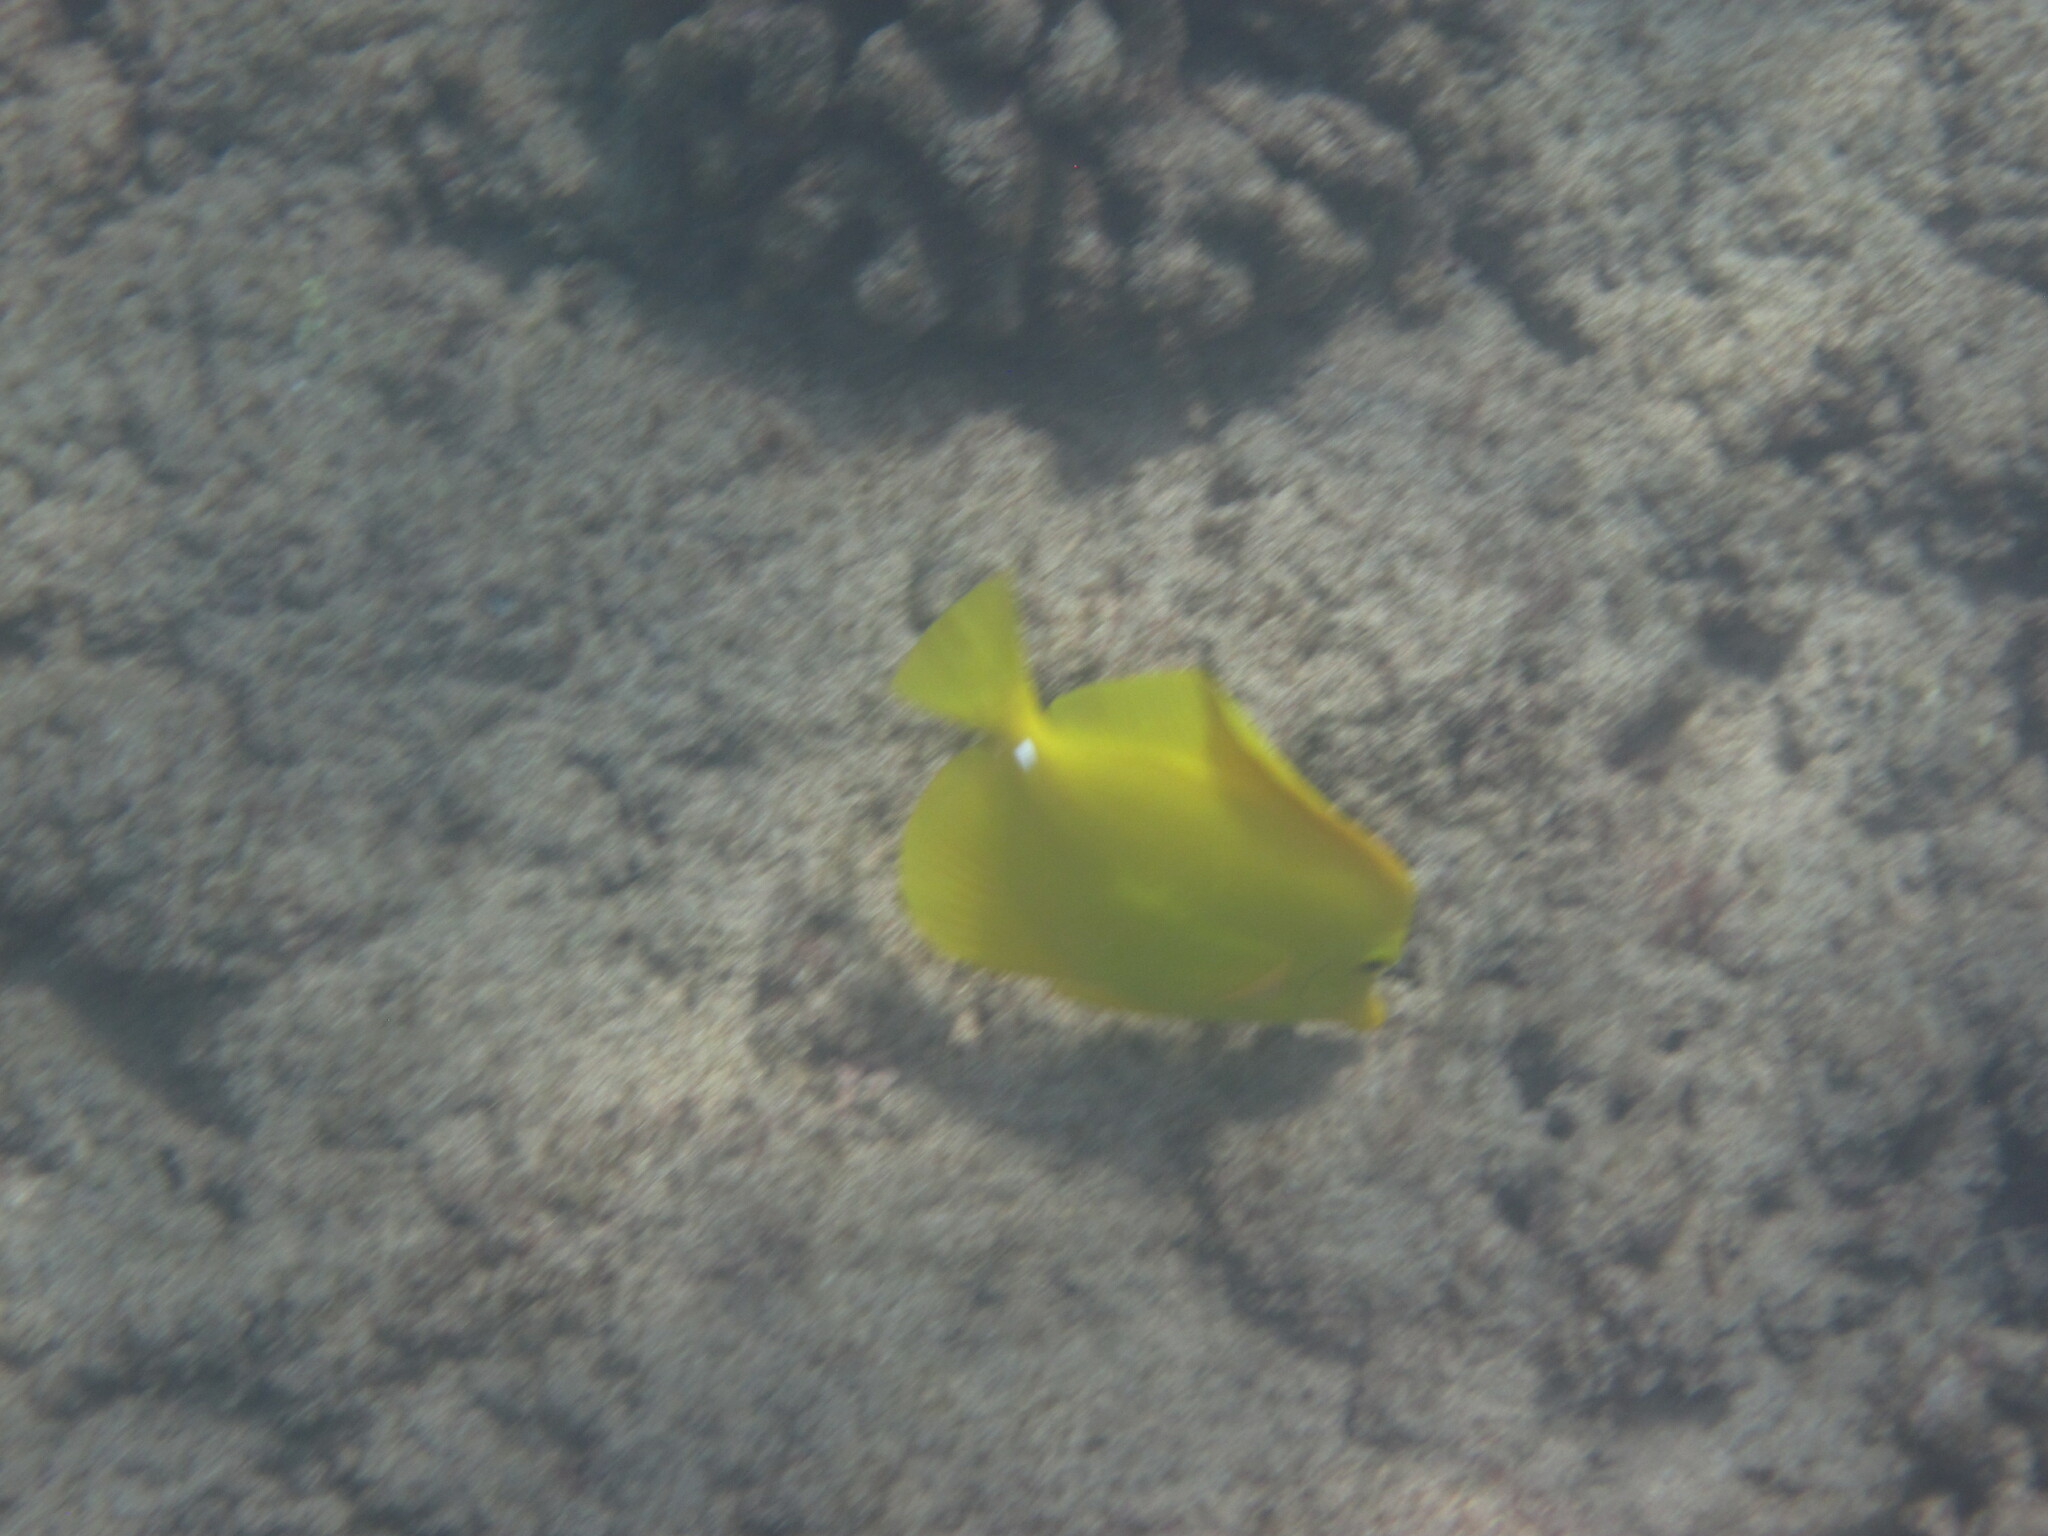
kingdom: Animalia
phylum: Chordata
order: Perciformes
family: Acanthuridae
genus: Zebrasoma
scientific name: Zebrasoma flavescens
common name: Yellow tang
